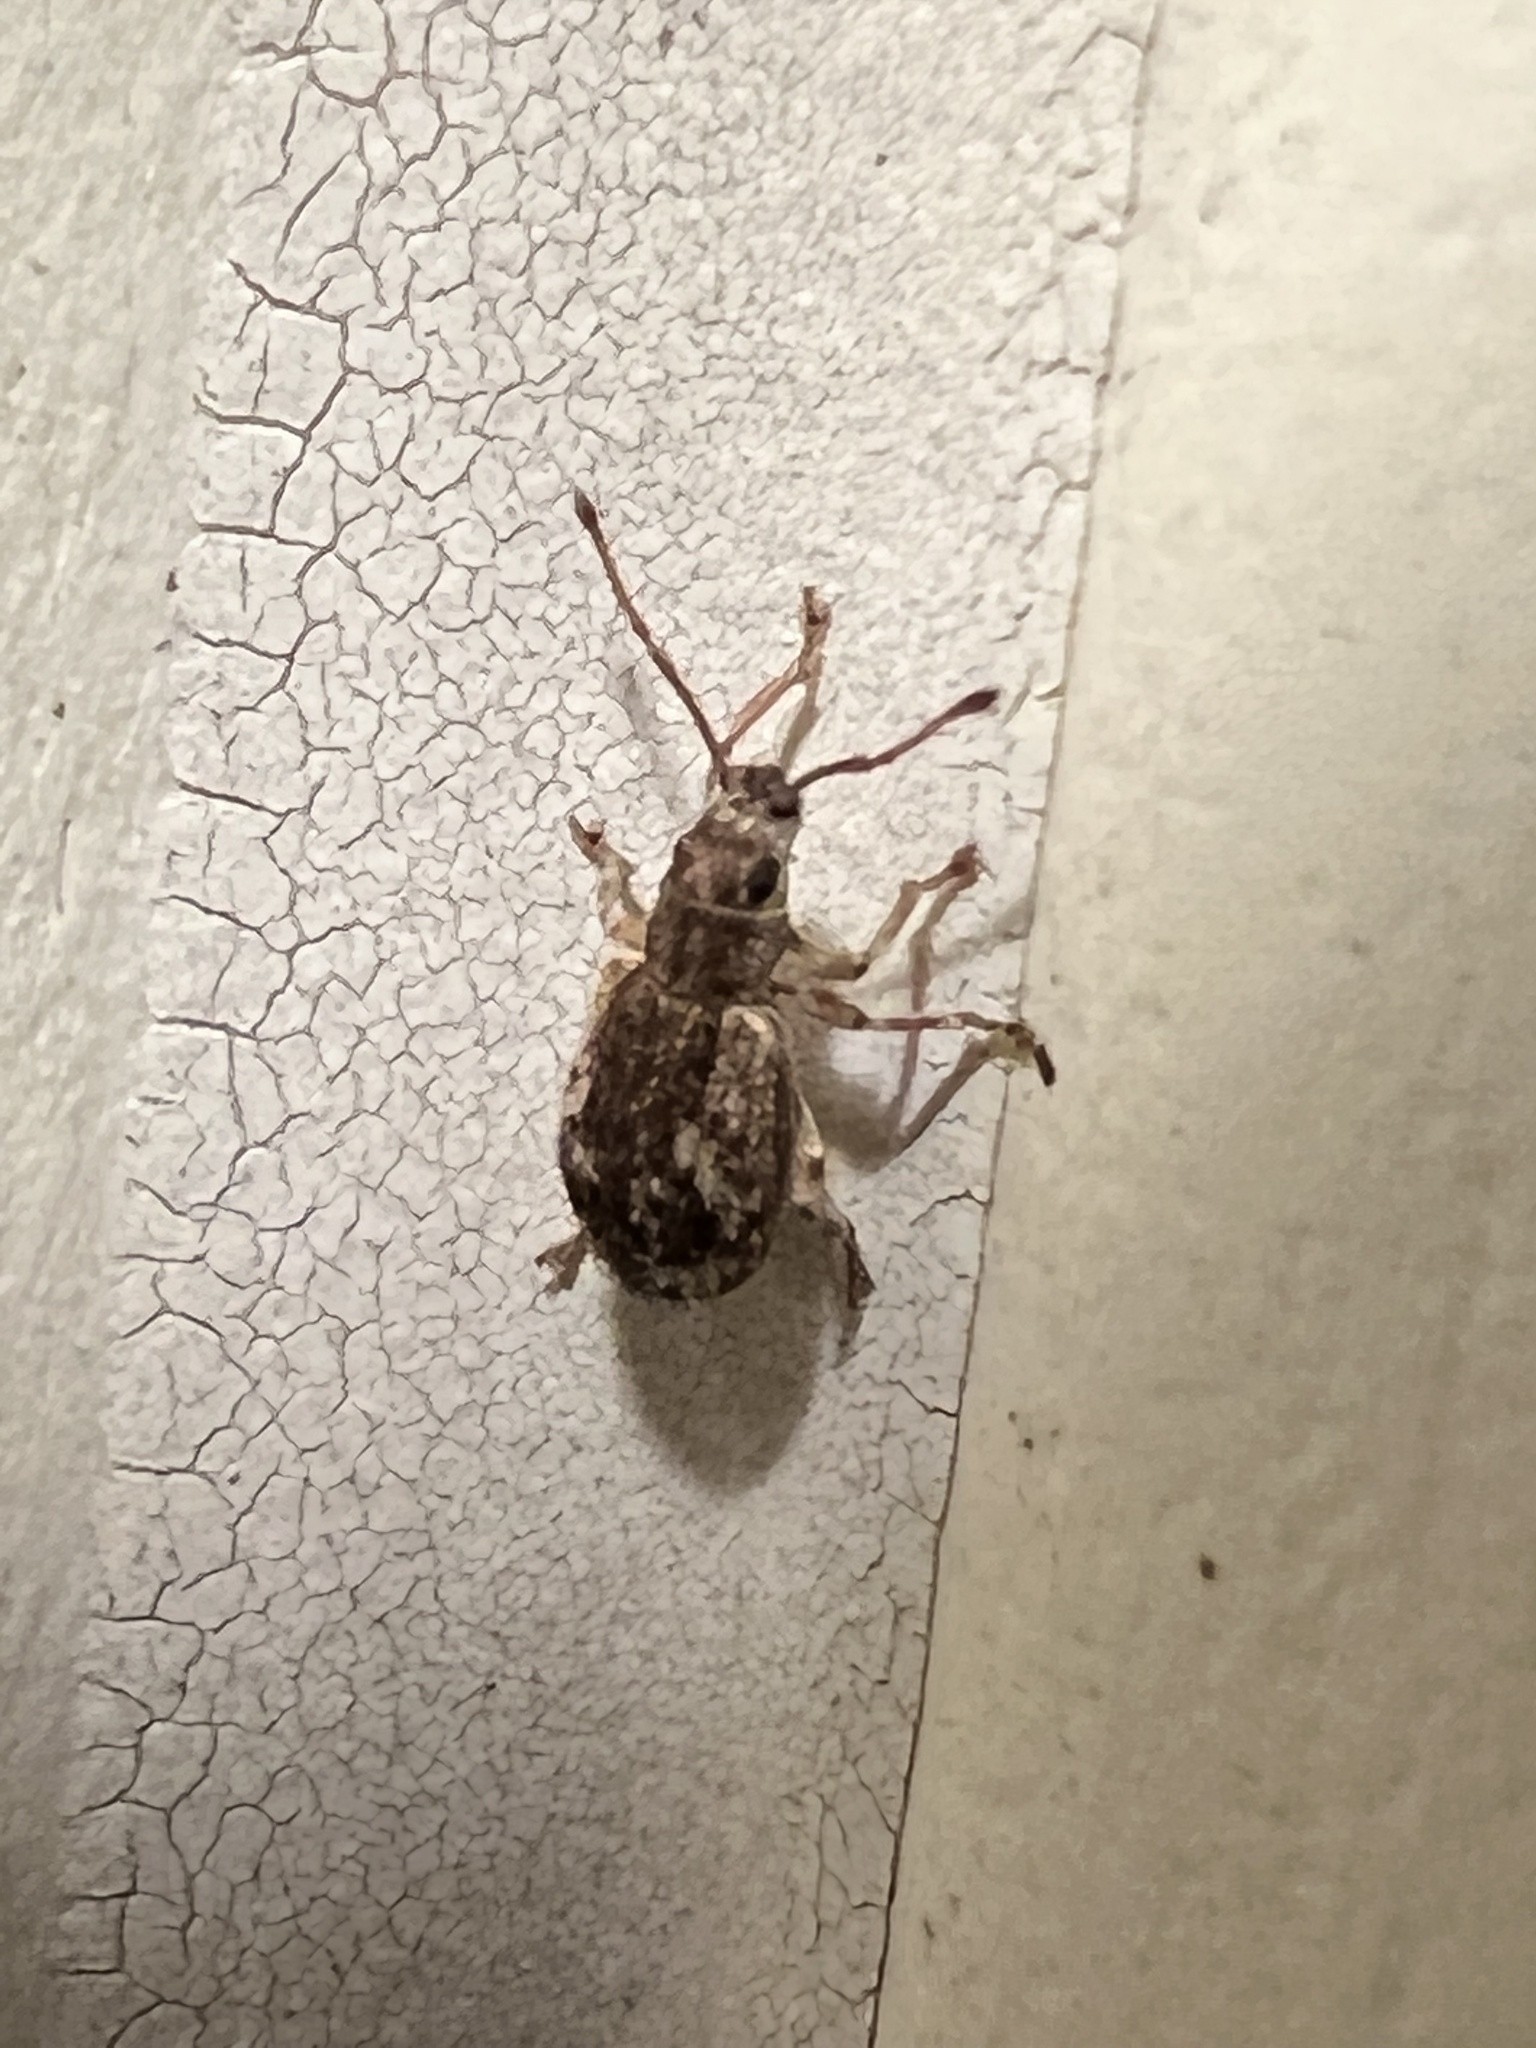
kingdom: Animalia
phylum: Arthropoda
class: Insecta
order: Coleoptera
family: Curculionidae
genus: Pseudoedophrys
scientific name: Pseudoedophrys hilleri
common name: Weevil
